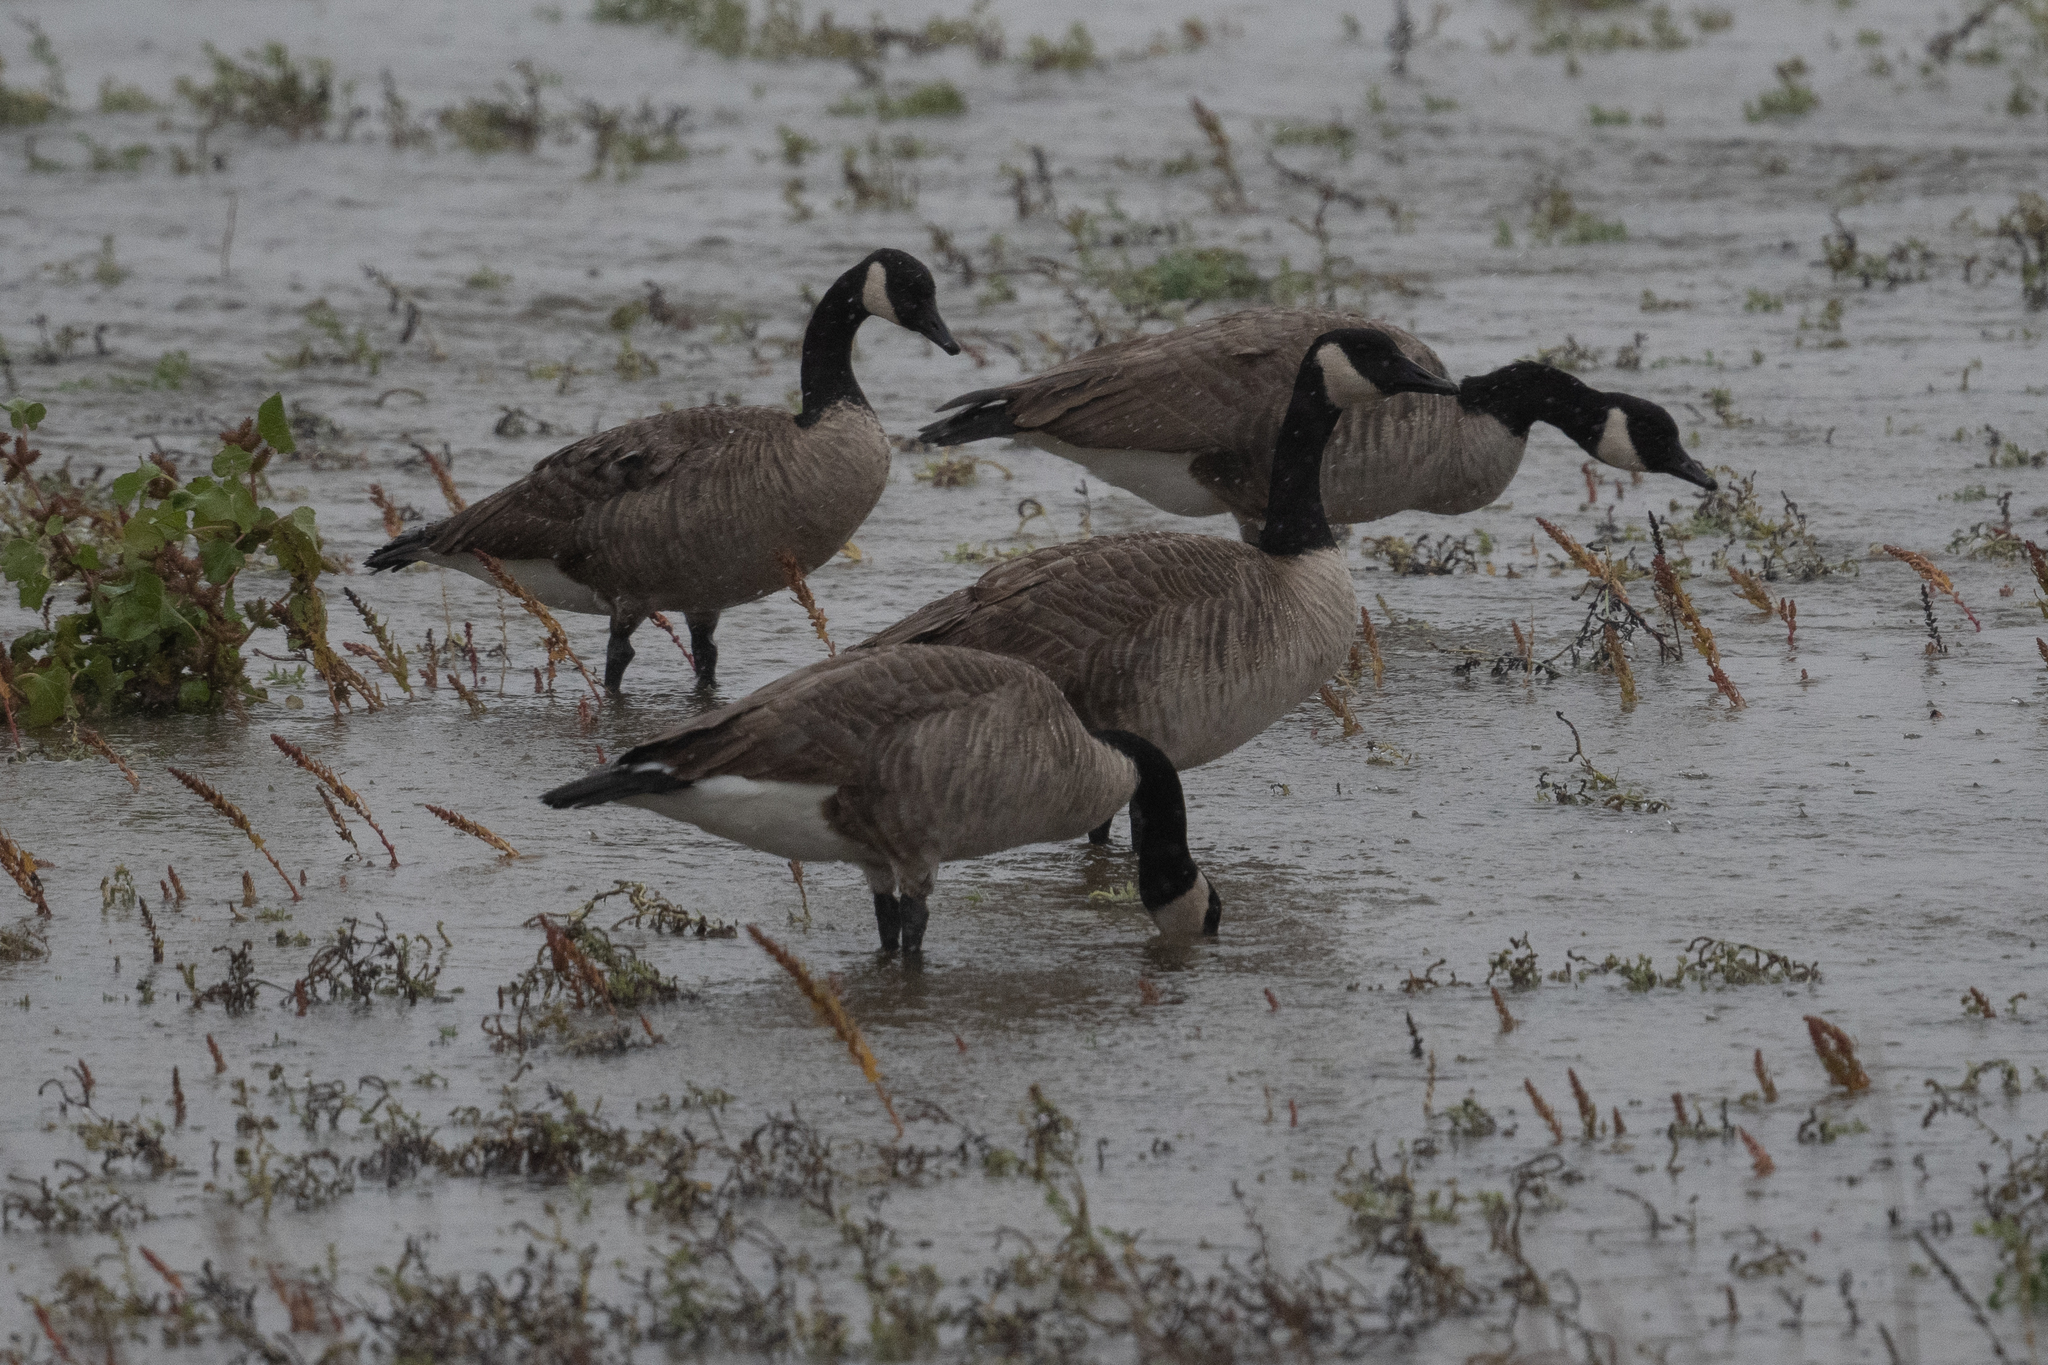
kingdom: Animalia
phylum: Chordata
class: Aves
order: Anseriformes
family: Anatidae
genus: Branta
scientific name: Branta canadensis
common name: Canada goose
